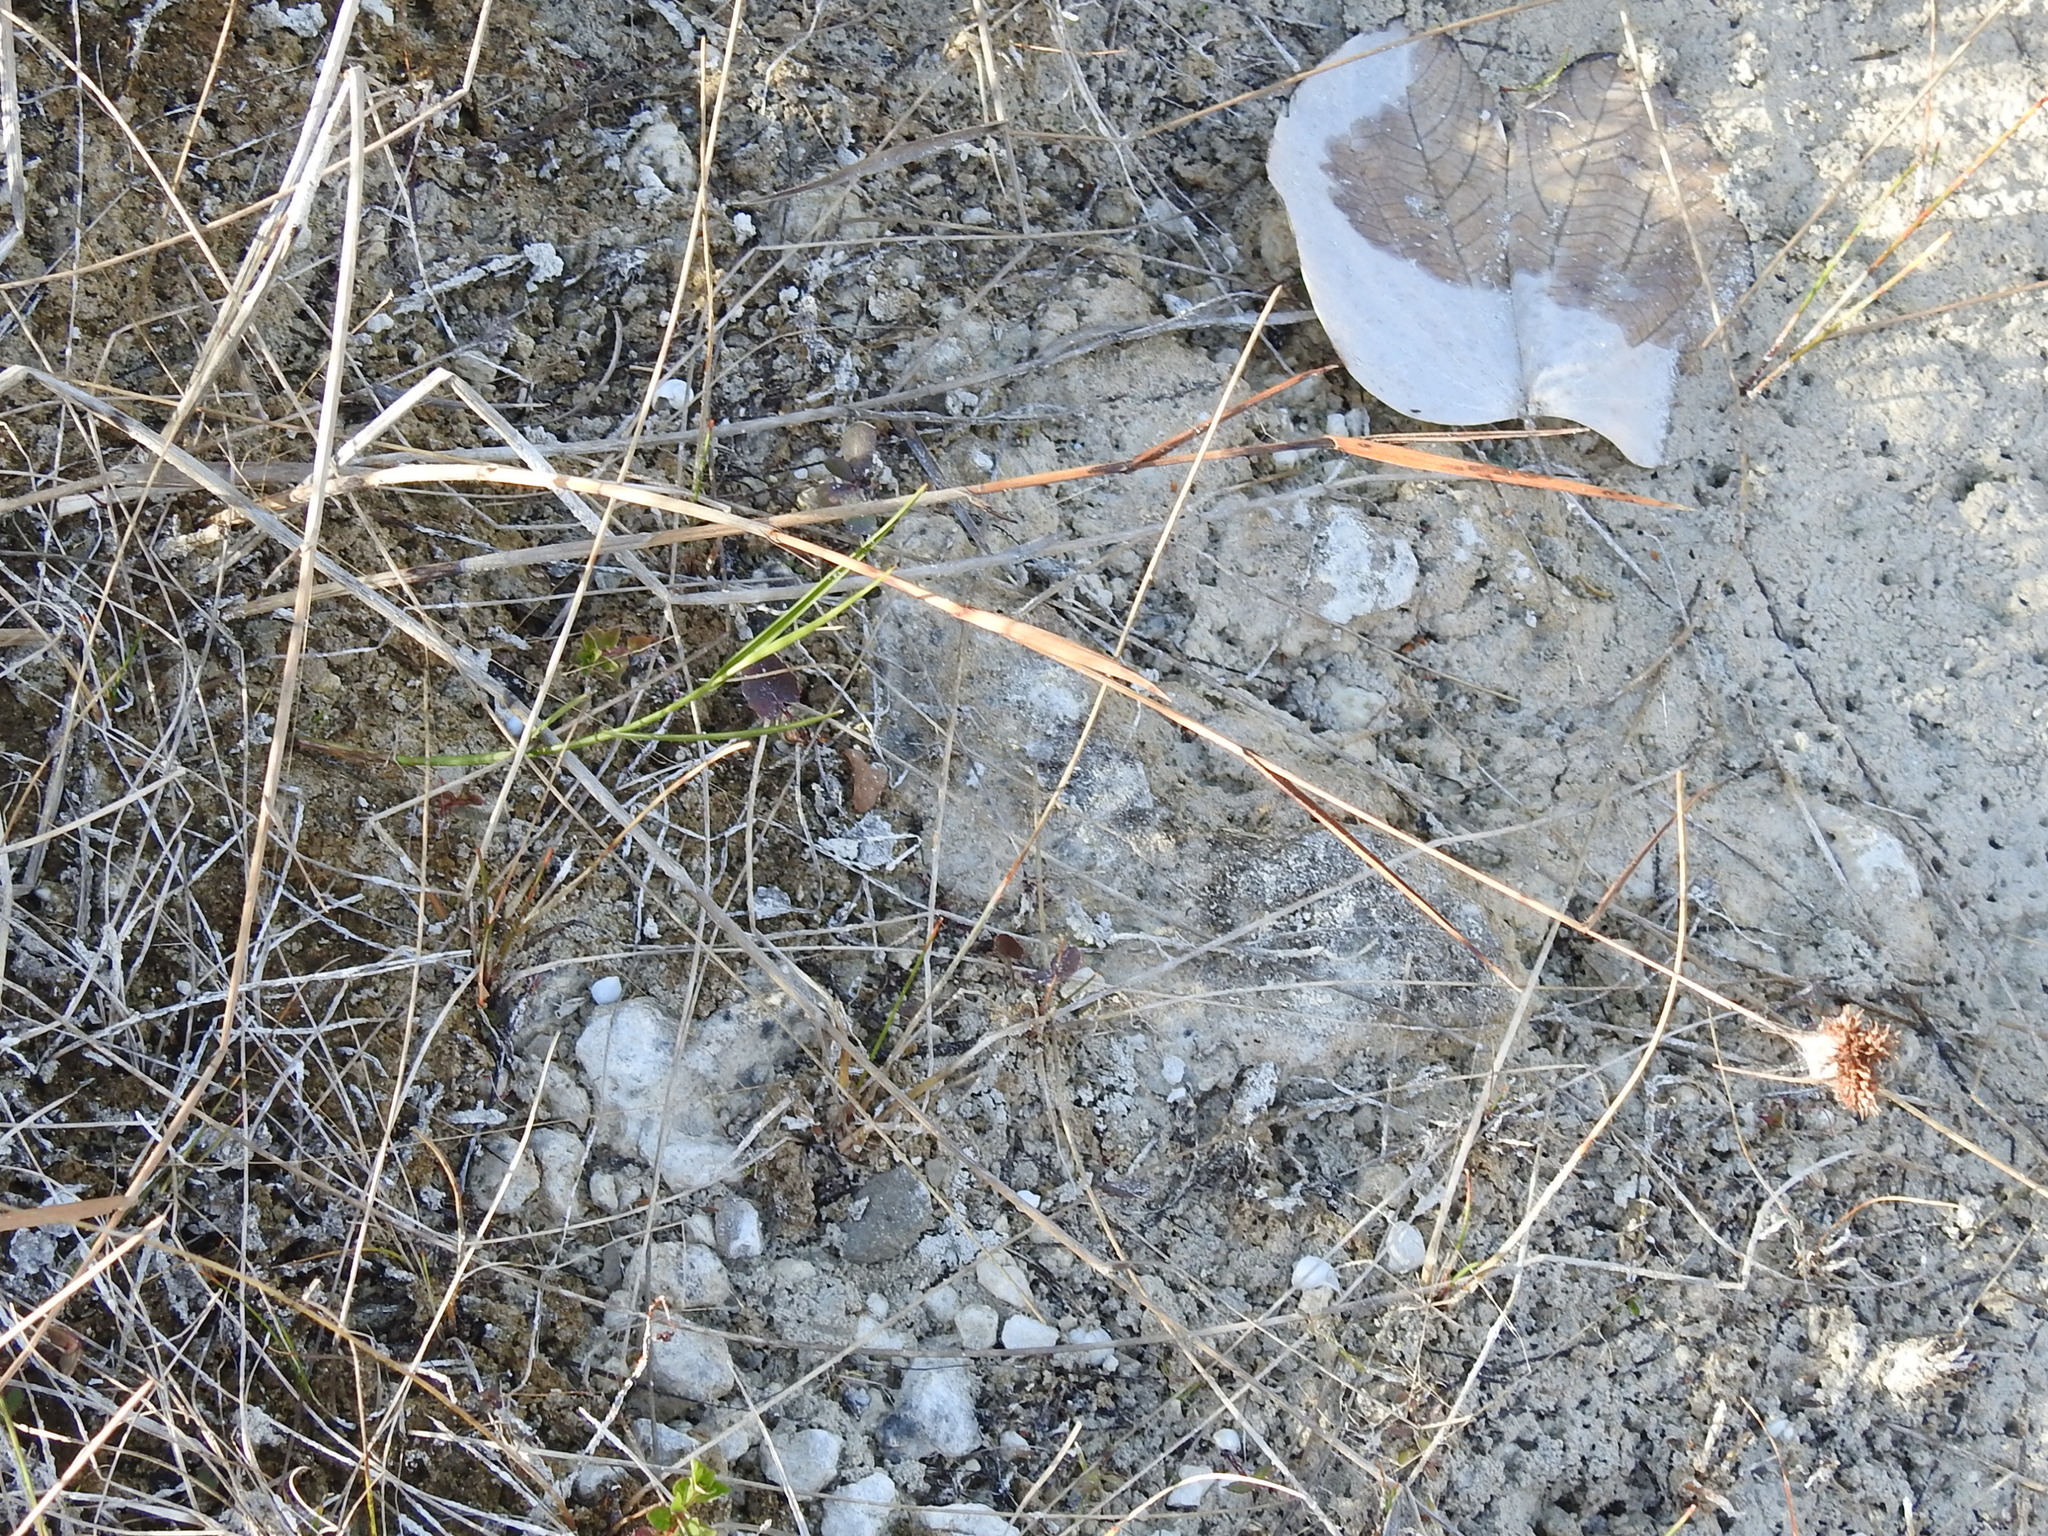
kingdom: Plantae
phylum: Tracheophyta
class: Liliopsida
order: Poales
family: Cyperaceae
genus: Fuirena
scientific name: Fuirena breviseta
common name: Saltmarsh umbrella sedge
